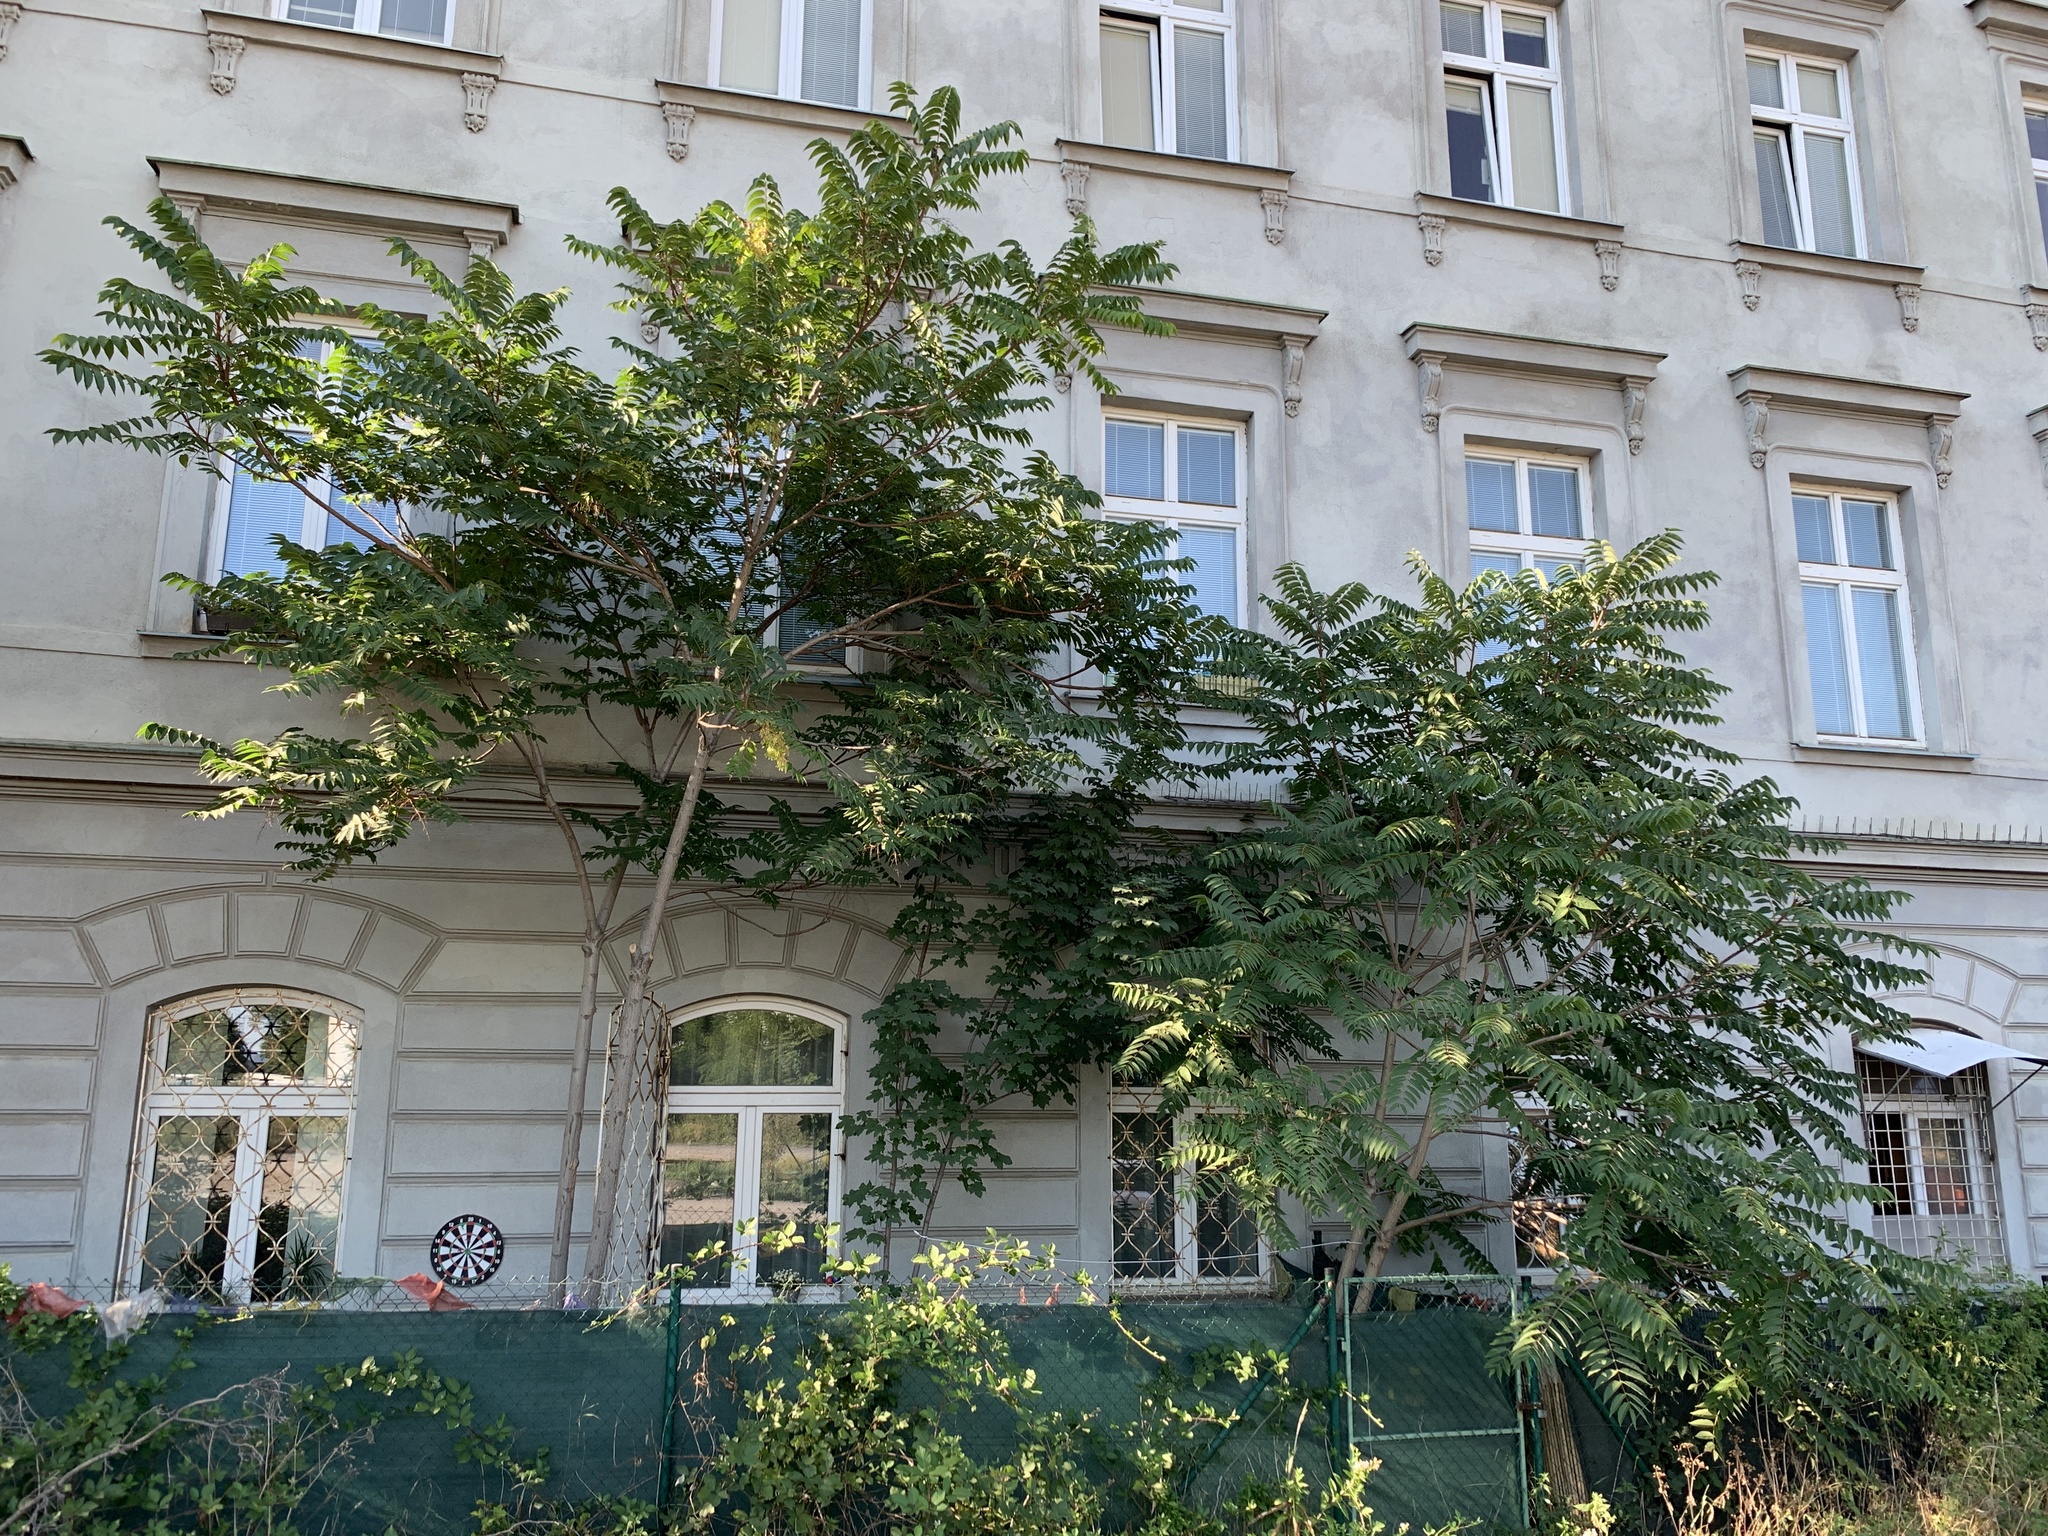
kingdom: Plantae
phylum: Tracheophyta
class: Magnoliopsida
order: Sapindales
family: Simaroubaceae
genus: Ailanthus
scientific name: Ailanthus altissima
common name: Tree-of-heaven
